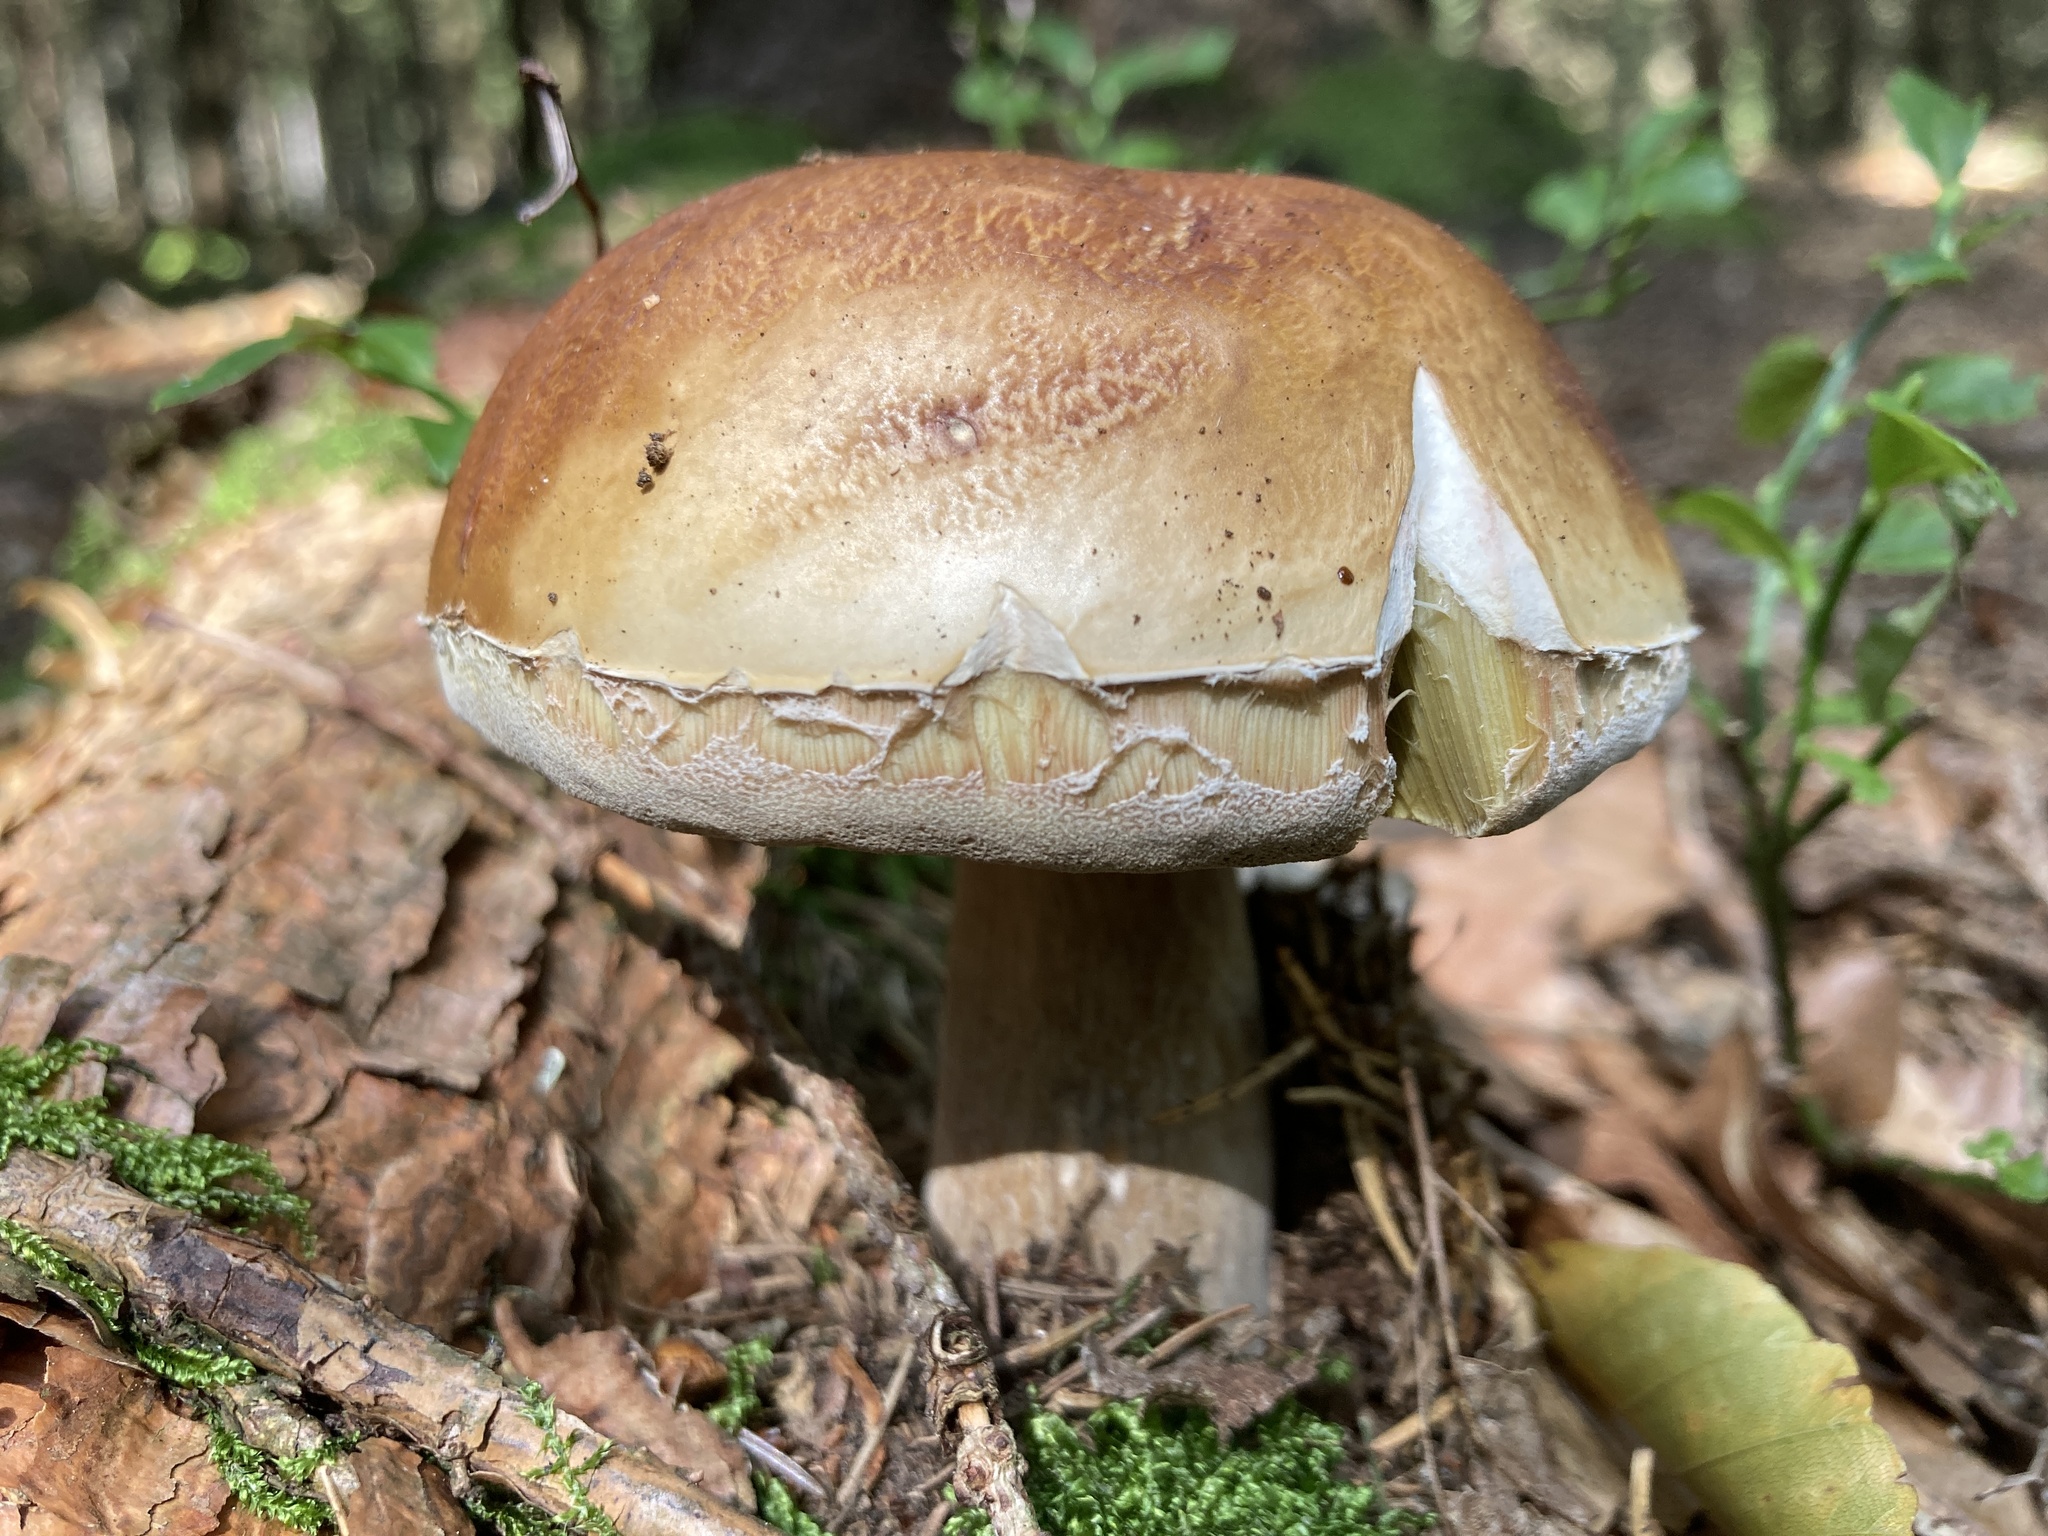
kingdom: Fungi
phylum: Basidiomycota
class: Agaricomycetes
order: Boletales
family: Boletaceae
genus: Boletus
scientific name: Boletus edulis
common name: Cep
